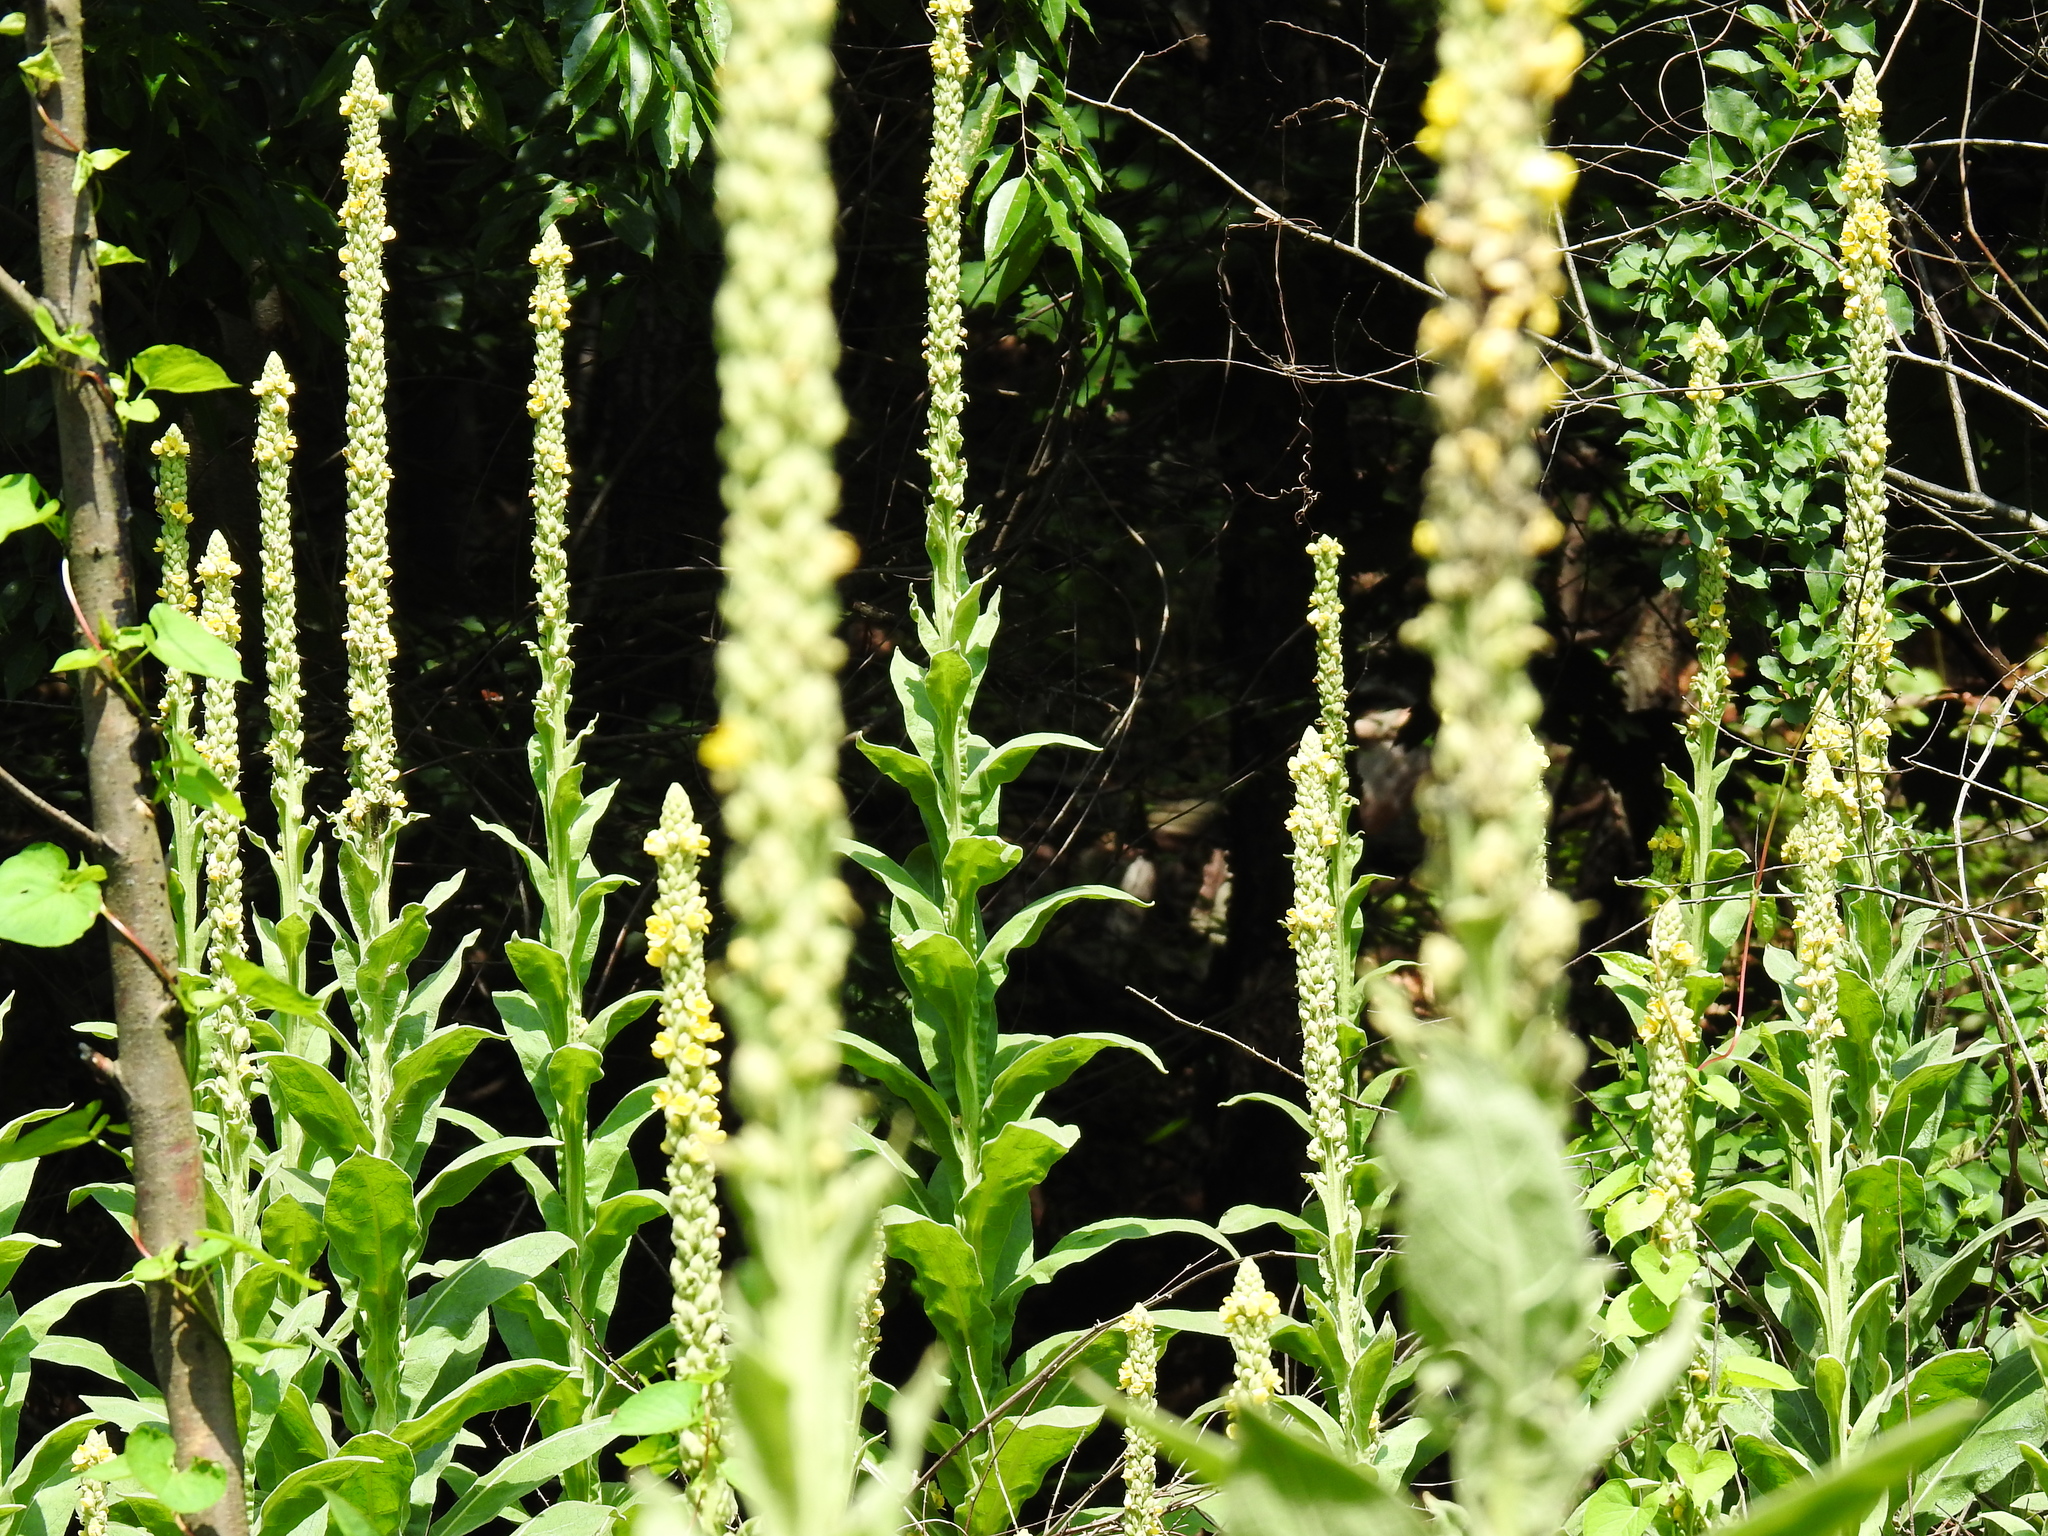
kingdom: Plantae
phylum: Tracheophyta
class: Magnoliopsida
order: Lamiales
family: Scrophulariaceae
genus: Verbascum
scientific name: Verbascum thapsus
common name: Common mullein
